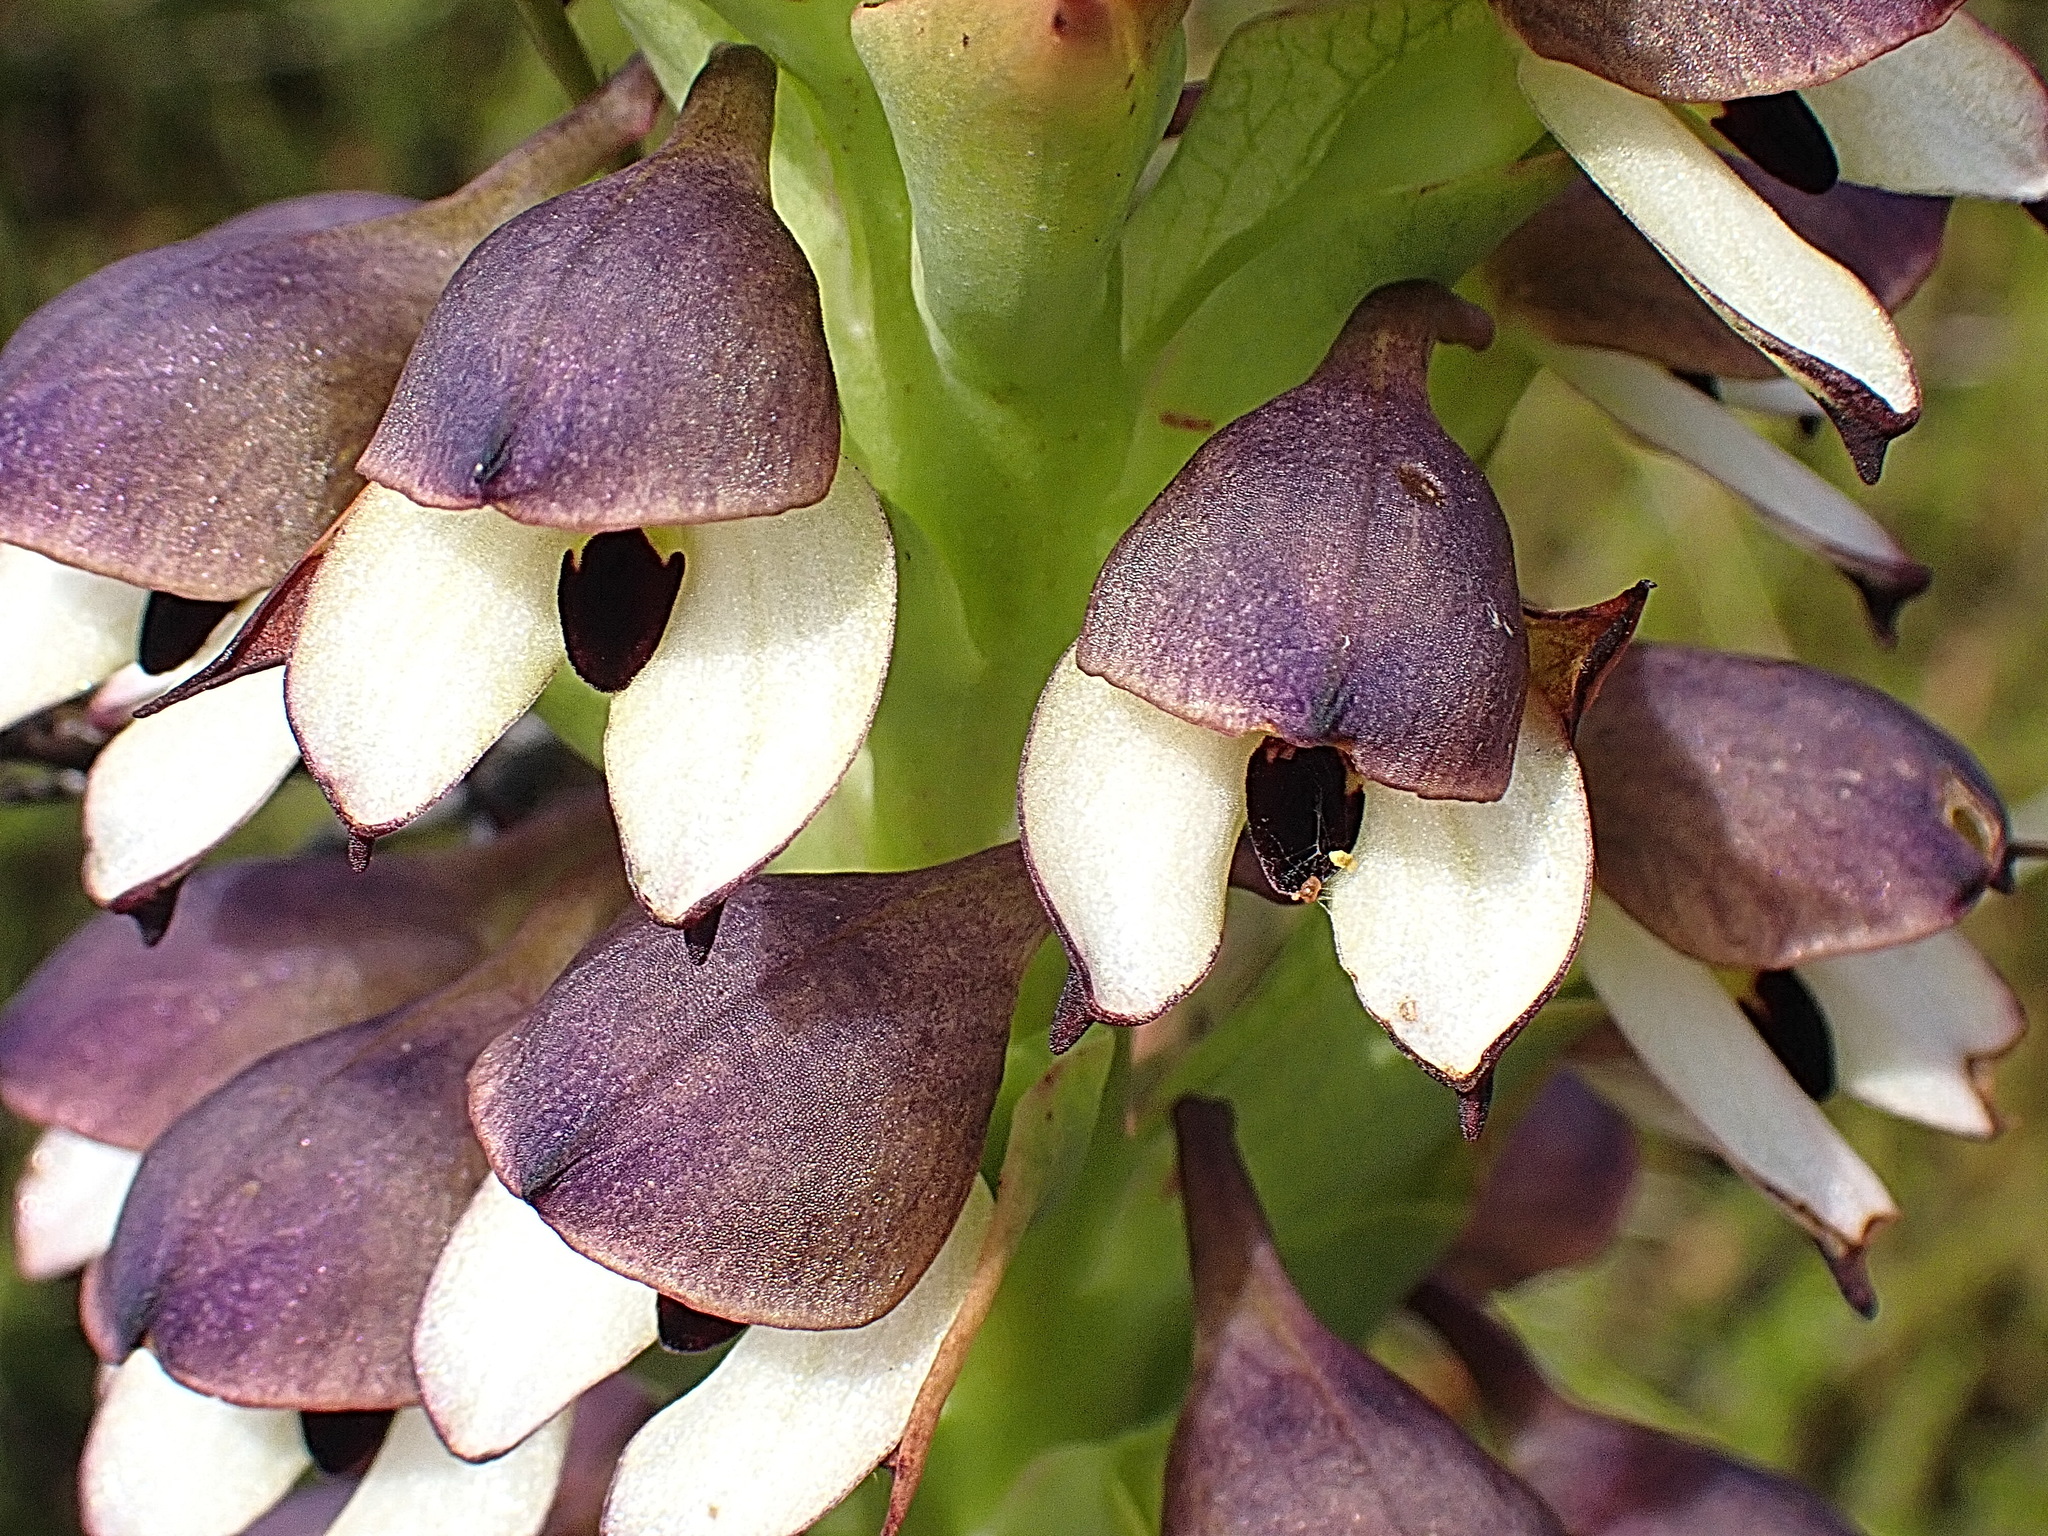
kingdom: Plantae
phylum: Tracheophyta
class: Liliopsida
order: Asparagales
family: Orchidaceae
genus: Disa
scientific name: Disa cornuta
